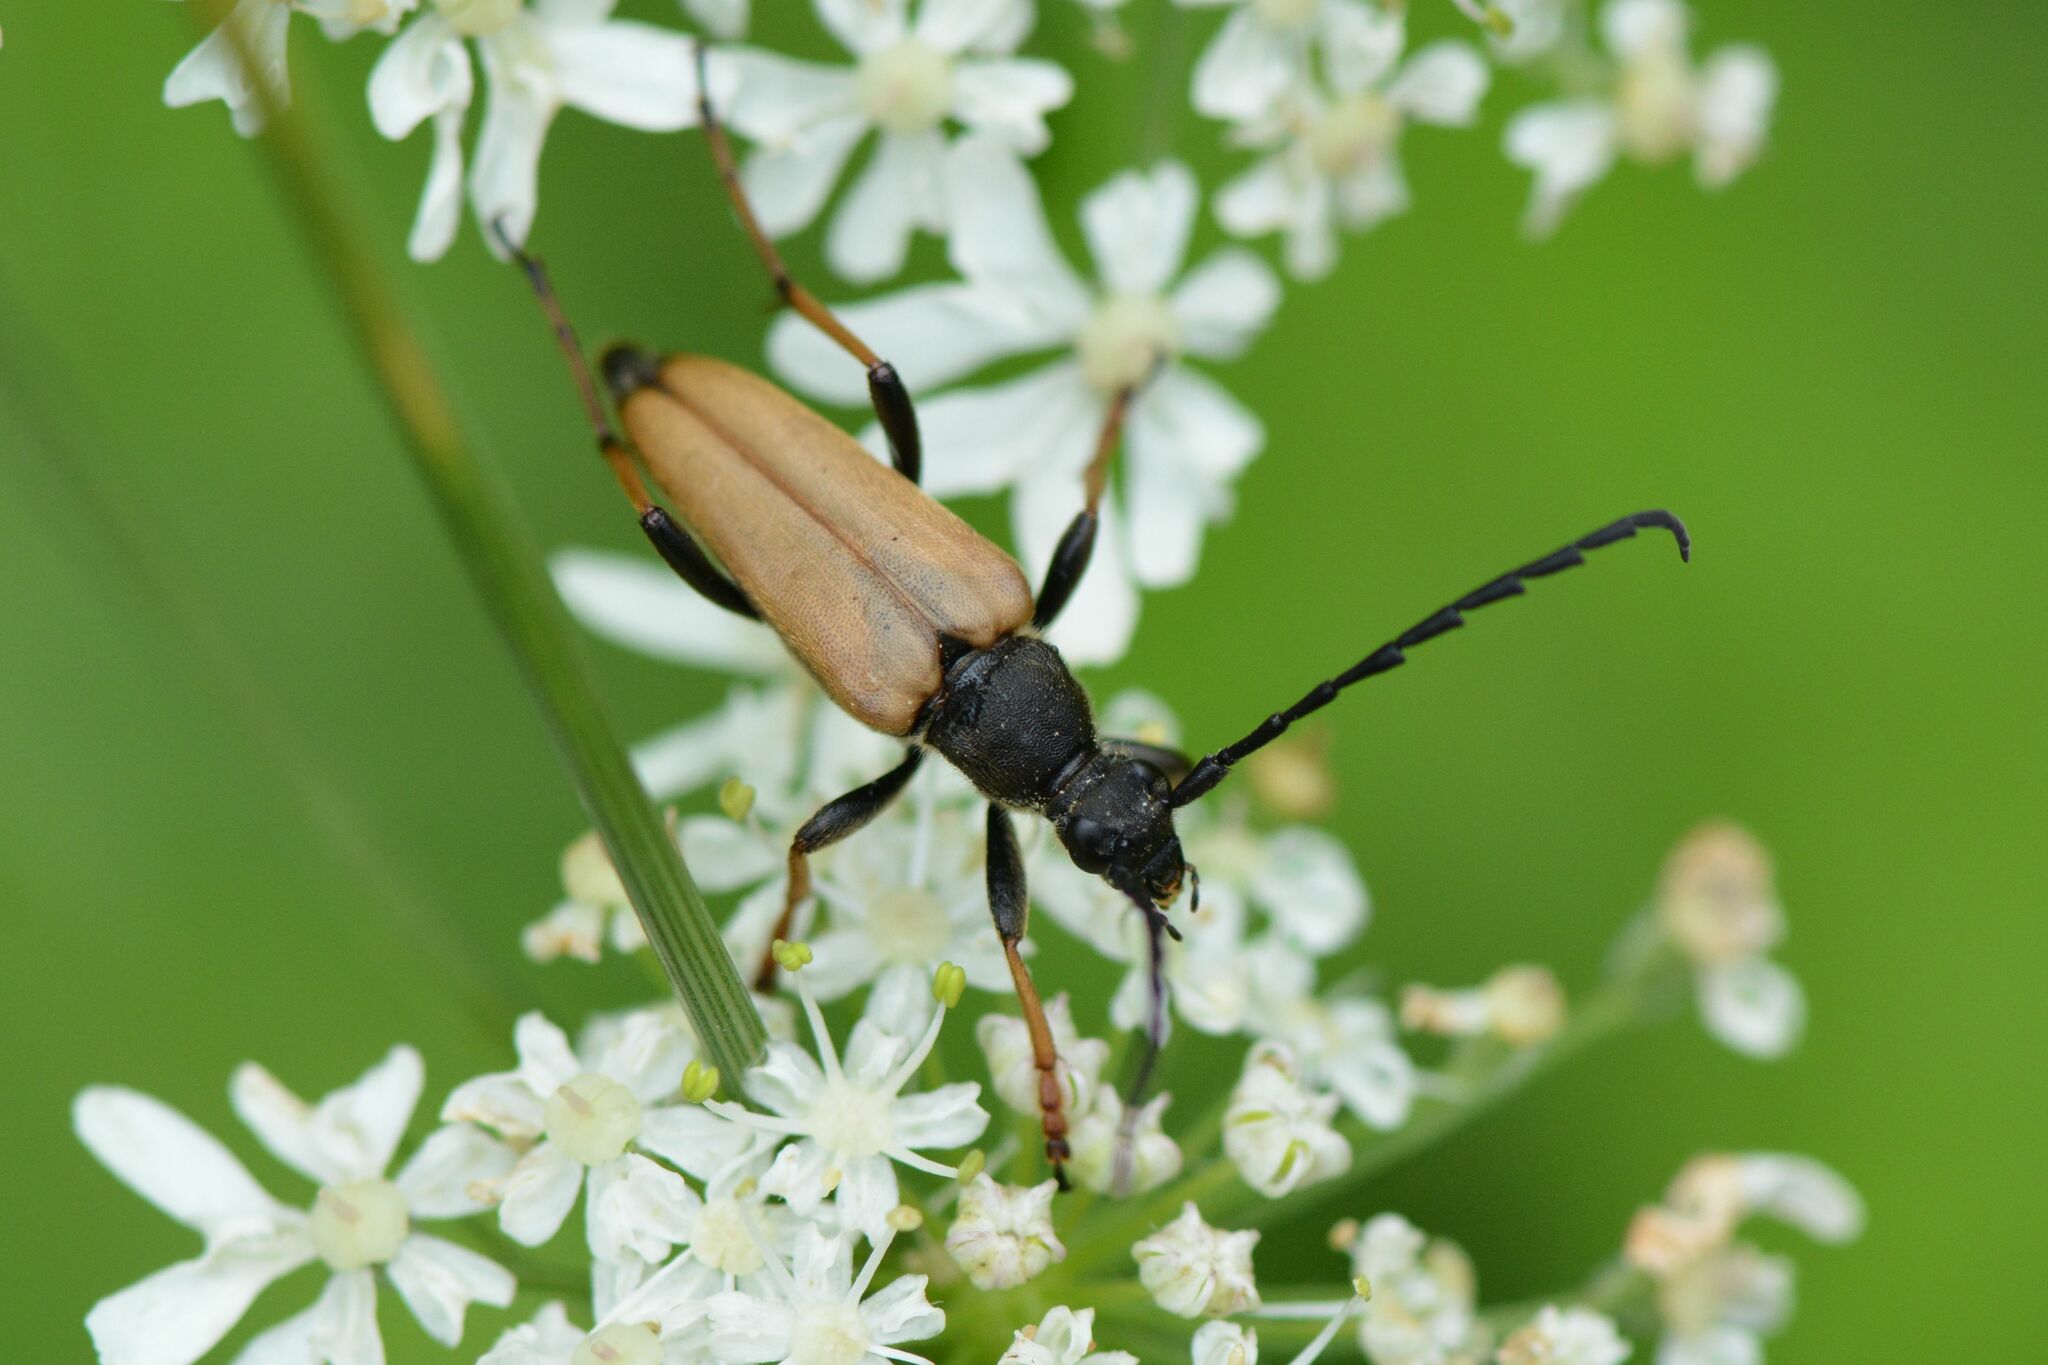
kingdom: Animalia
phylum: Arthropoda
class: Insecta
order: Coleoptera
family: Cerambycidae
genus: Stictoleptura
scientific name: Stictoleptura rubra
